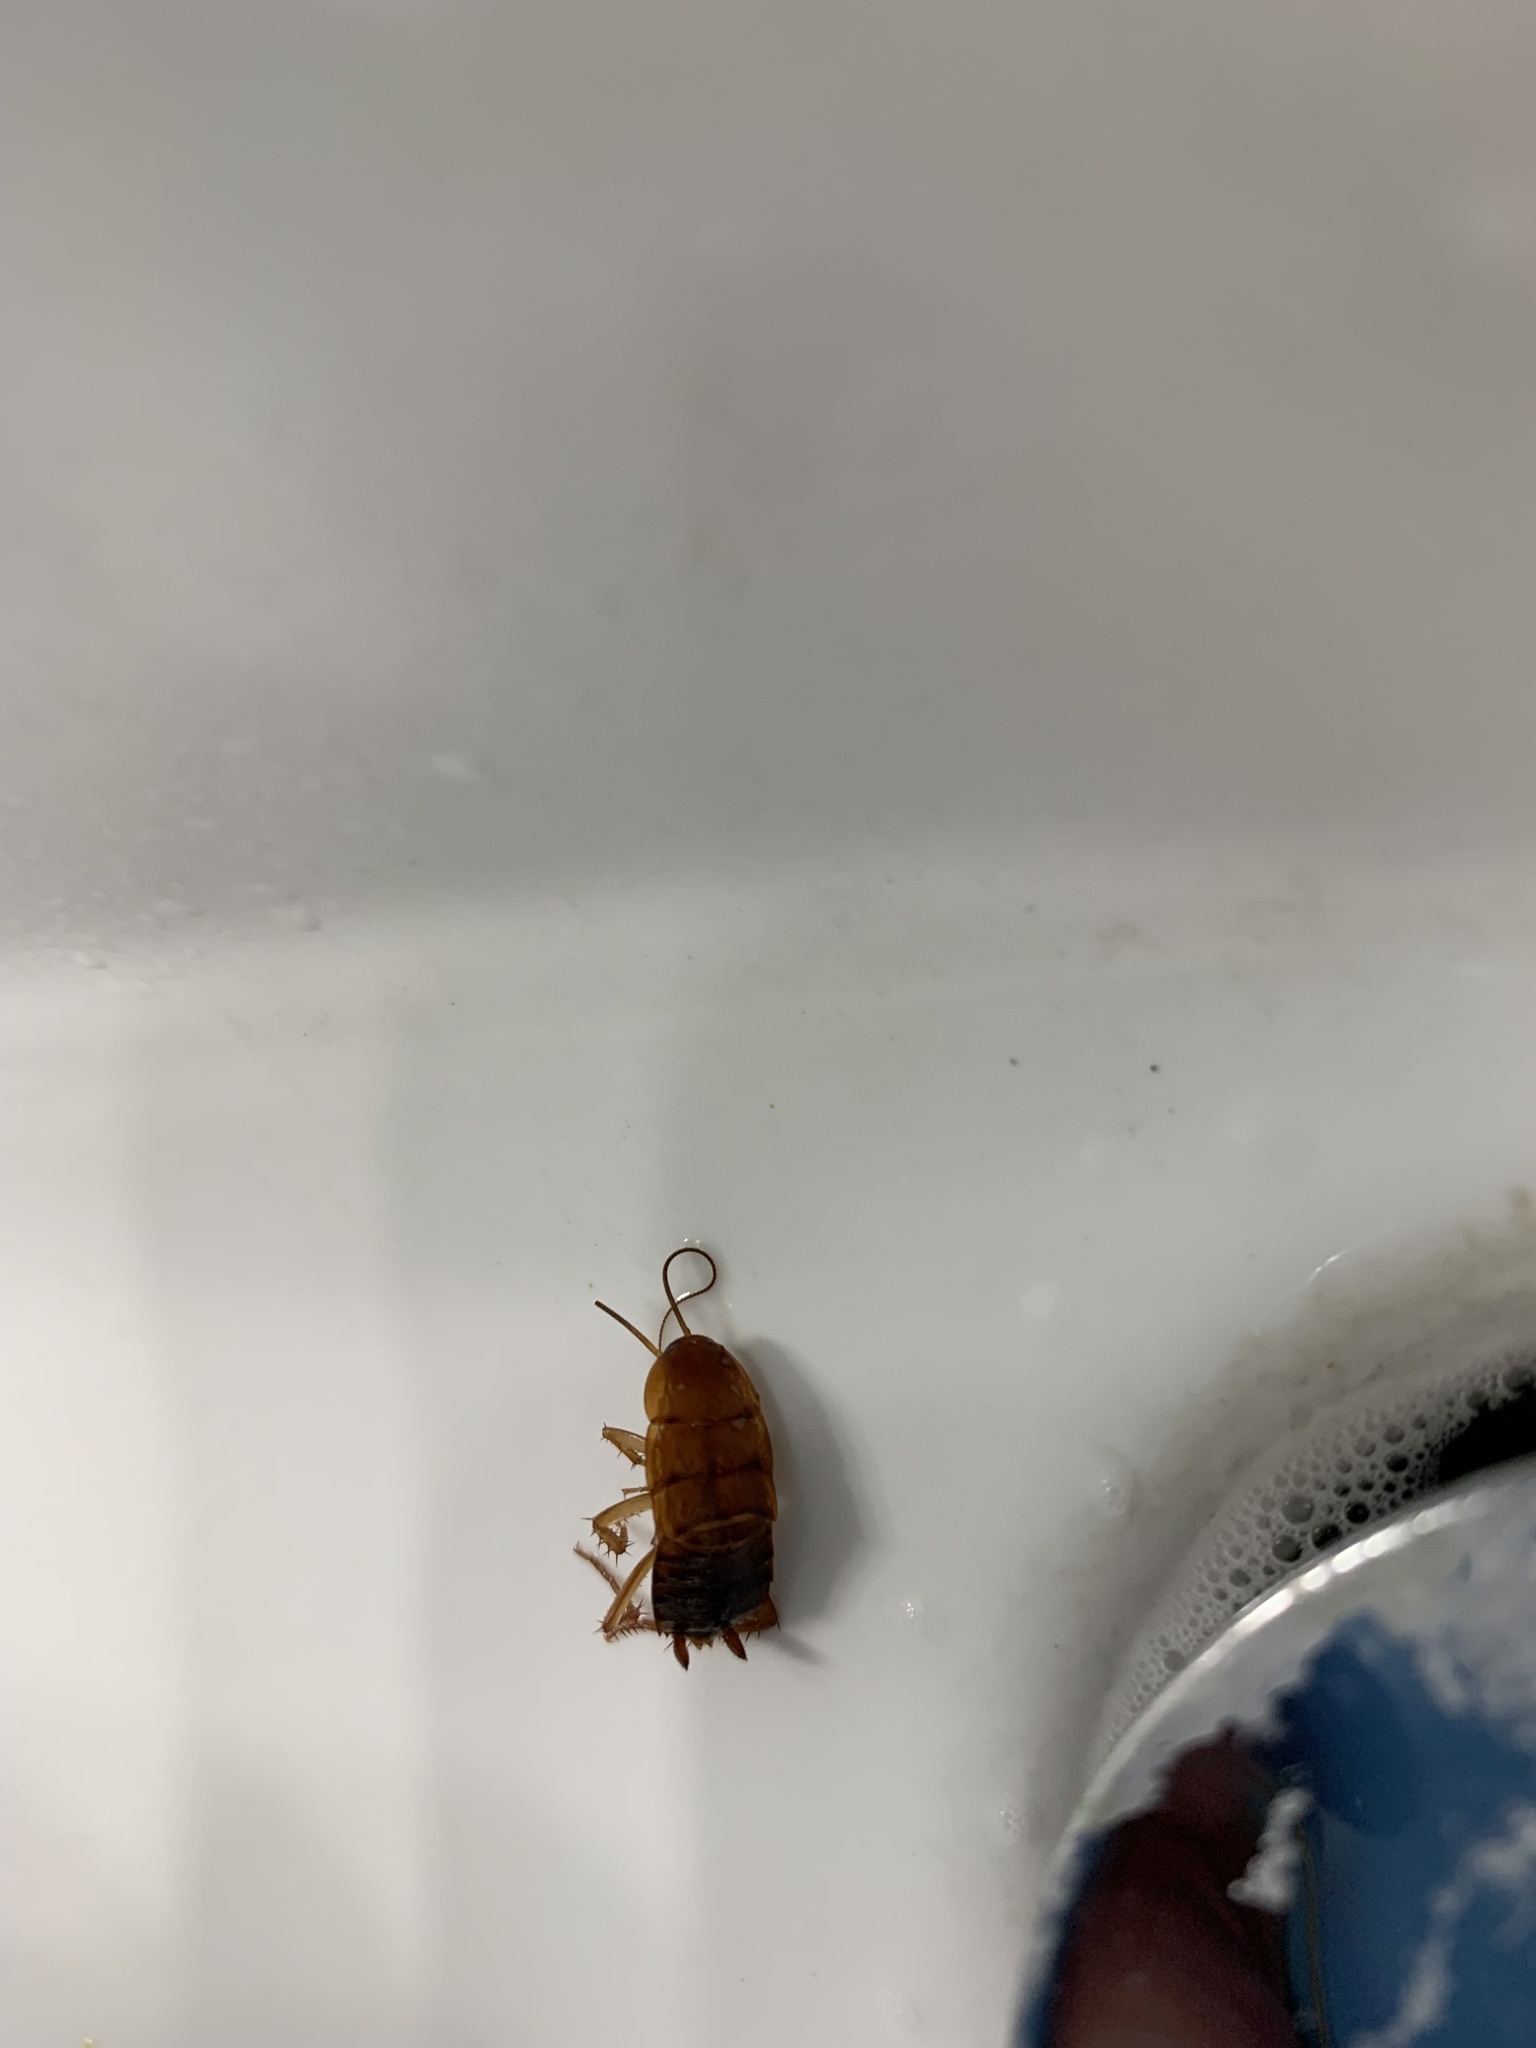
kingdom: Animalia
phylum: Arthropoda
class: Insecta
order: Blattodea
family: Blattidae
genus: Periplaneta
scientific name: Periplaneta lateralis
